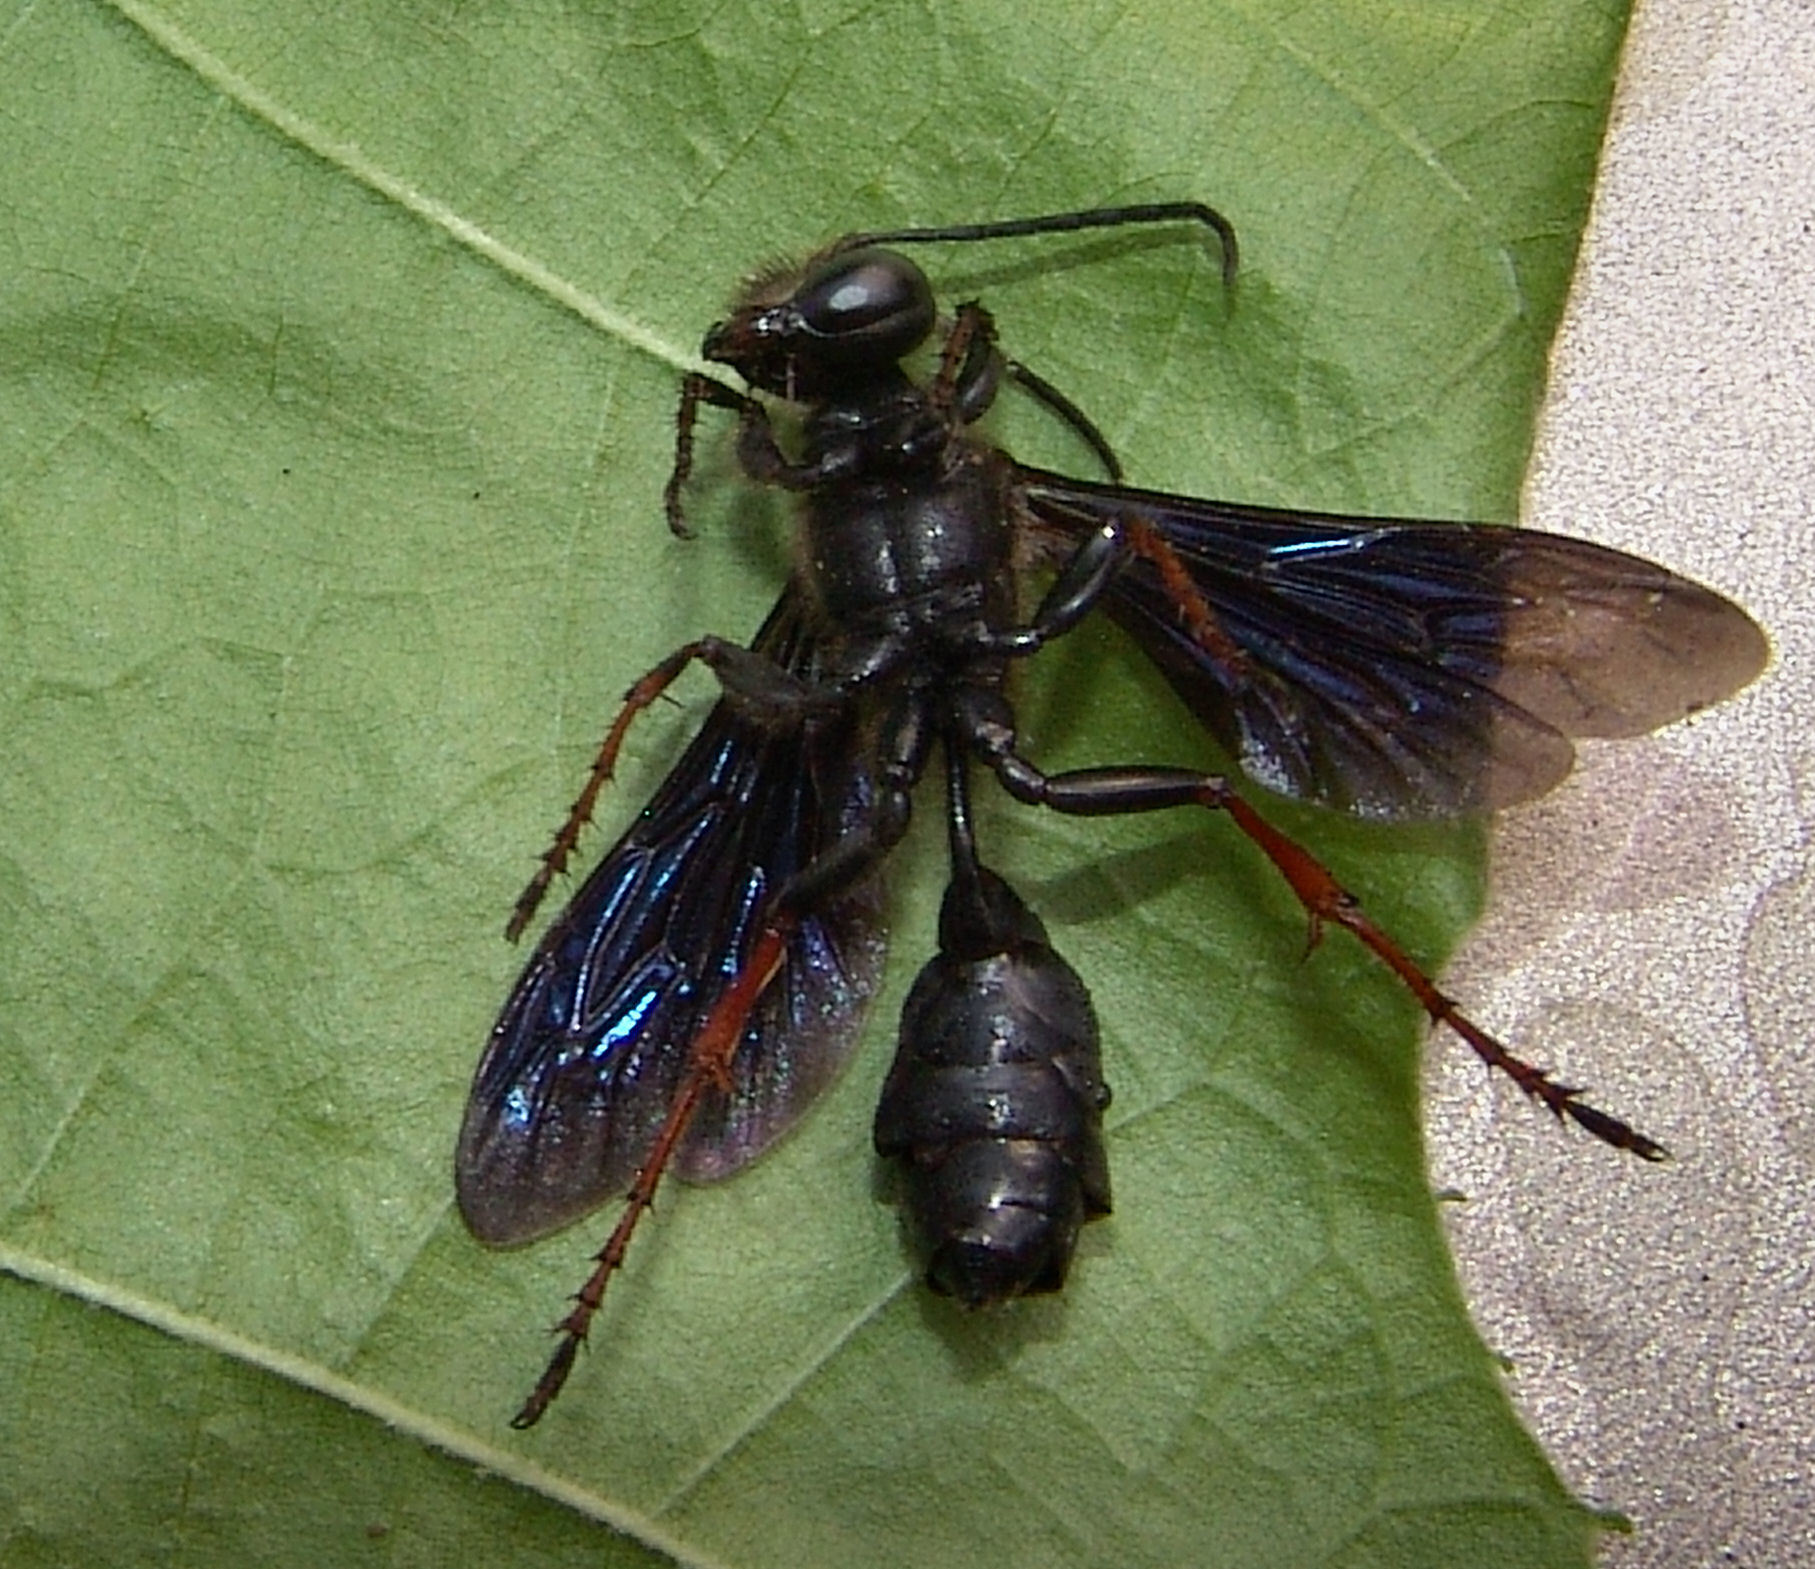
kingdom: Animalia
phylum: Arthropoda
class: Insecta
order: Hymenoptera
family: Sphecidae
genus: Isodontia
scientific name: Isodontia auripes
